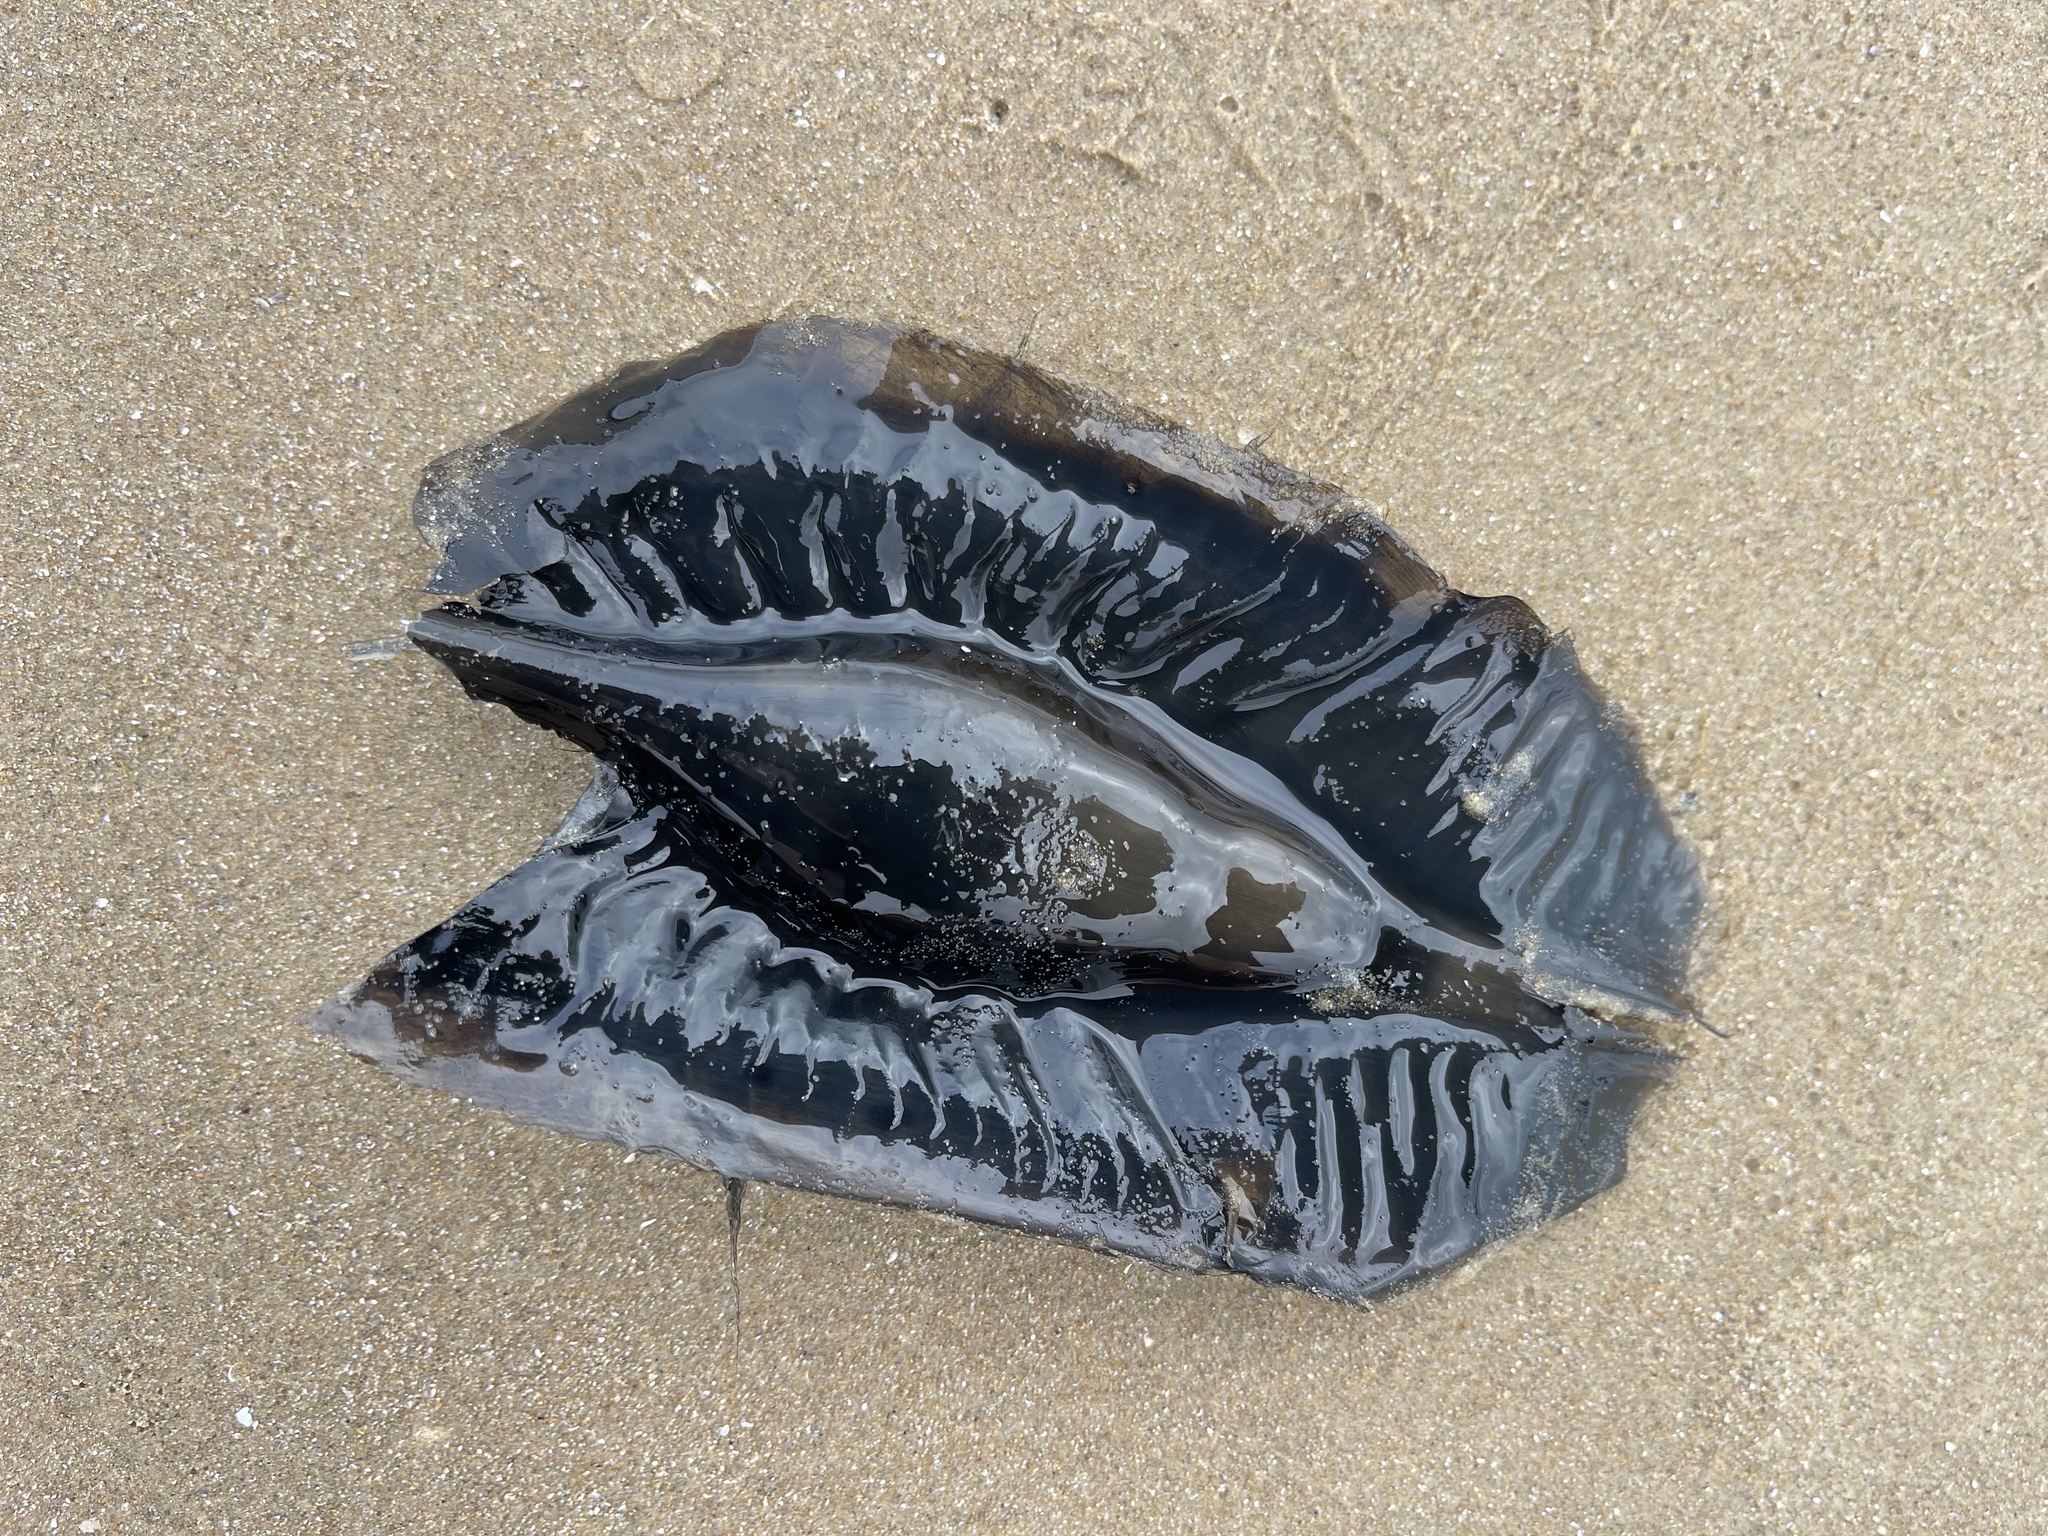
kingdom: Animalia
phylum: Chordata
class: Holocephali
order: Chimaeriformes
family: Callorhinchidae
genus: Callorhinchus
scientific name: Callorhinchus milii
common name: Elephant fish
